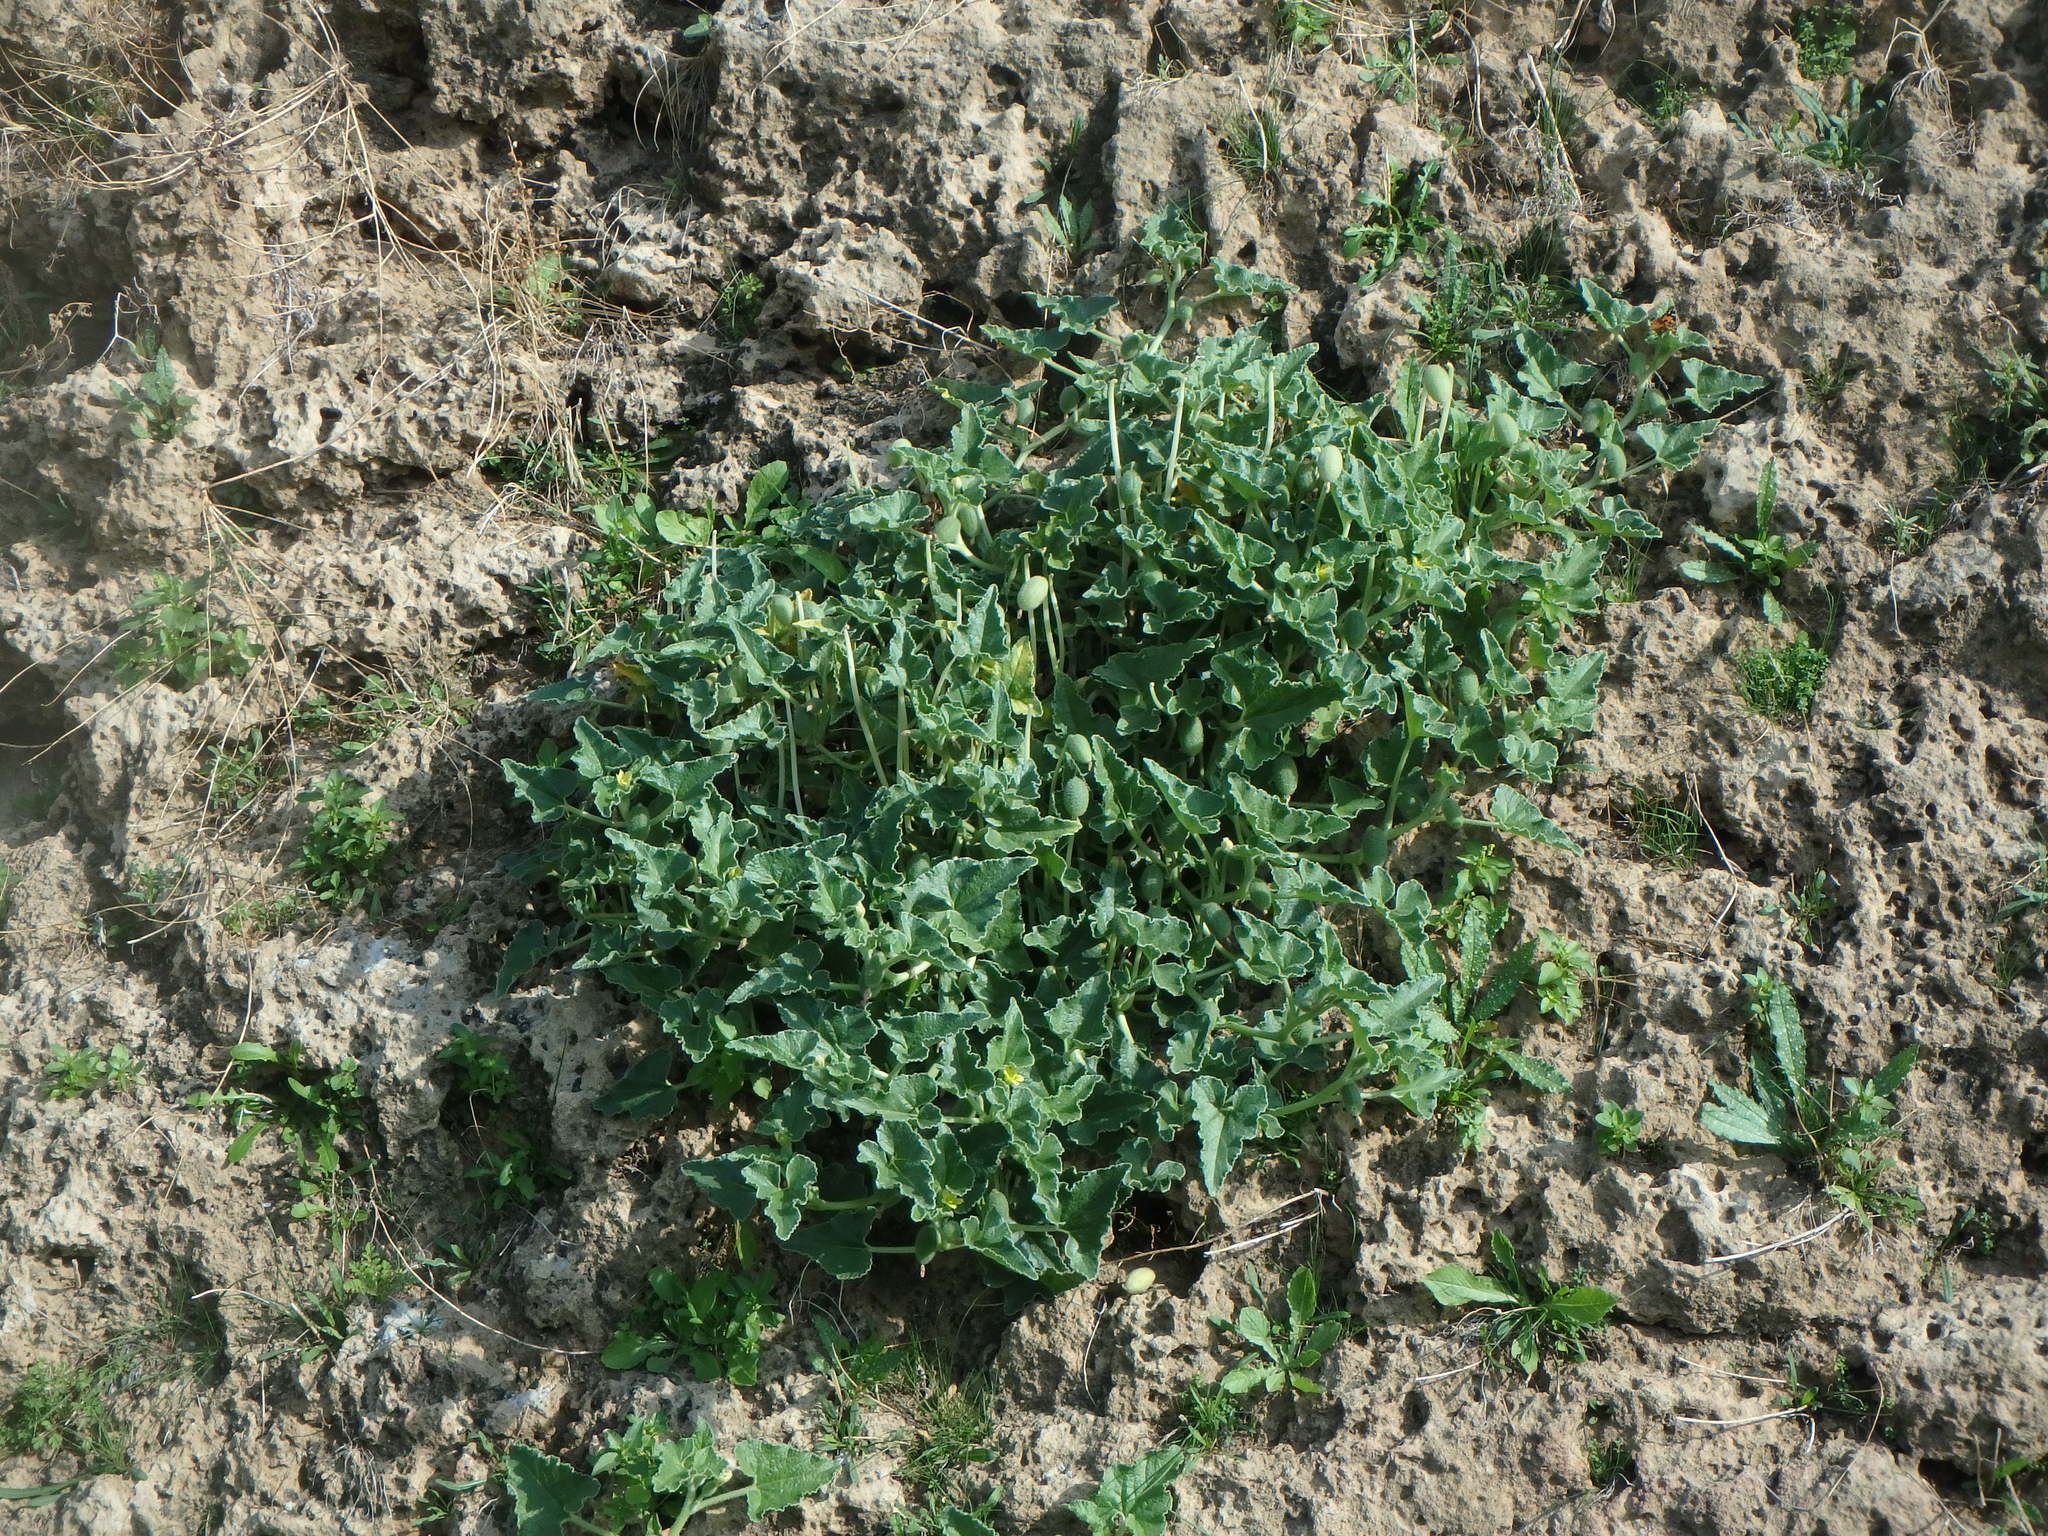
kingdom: Plantae
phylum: Tracheophyta
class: Magnoliopsida
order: Cucurbitales
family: Cucurbitaceae
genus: Ecballium
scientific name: Ecballium elaterium
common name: Squirting cucumber
